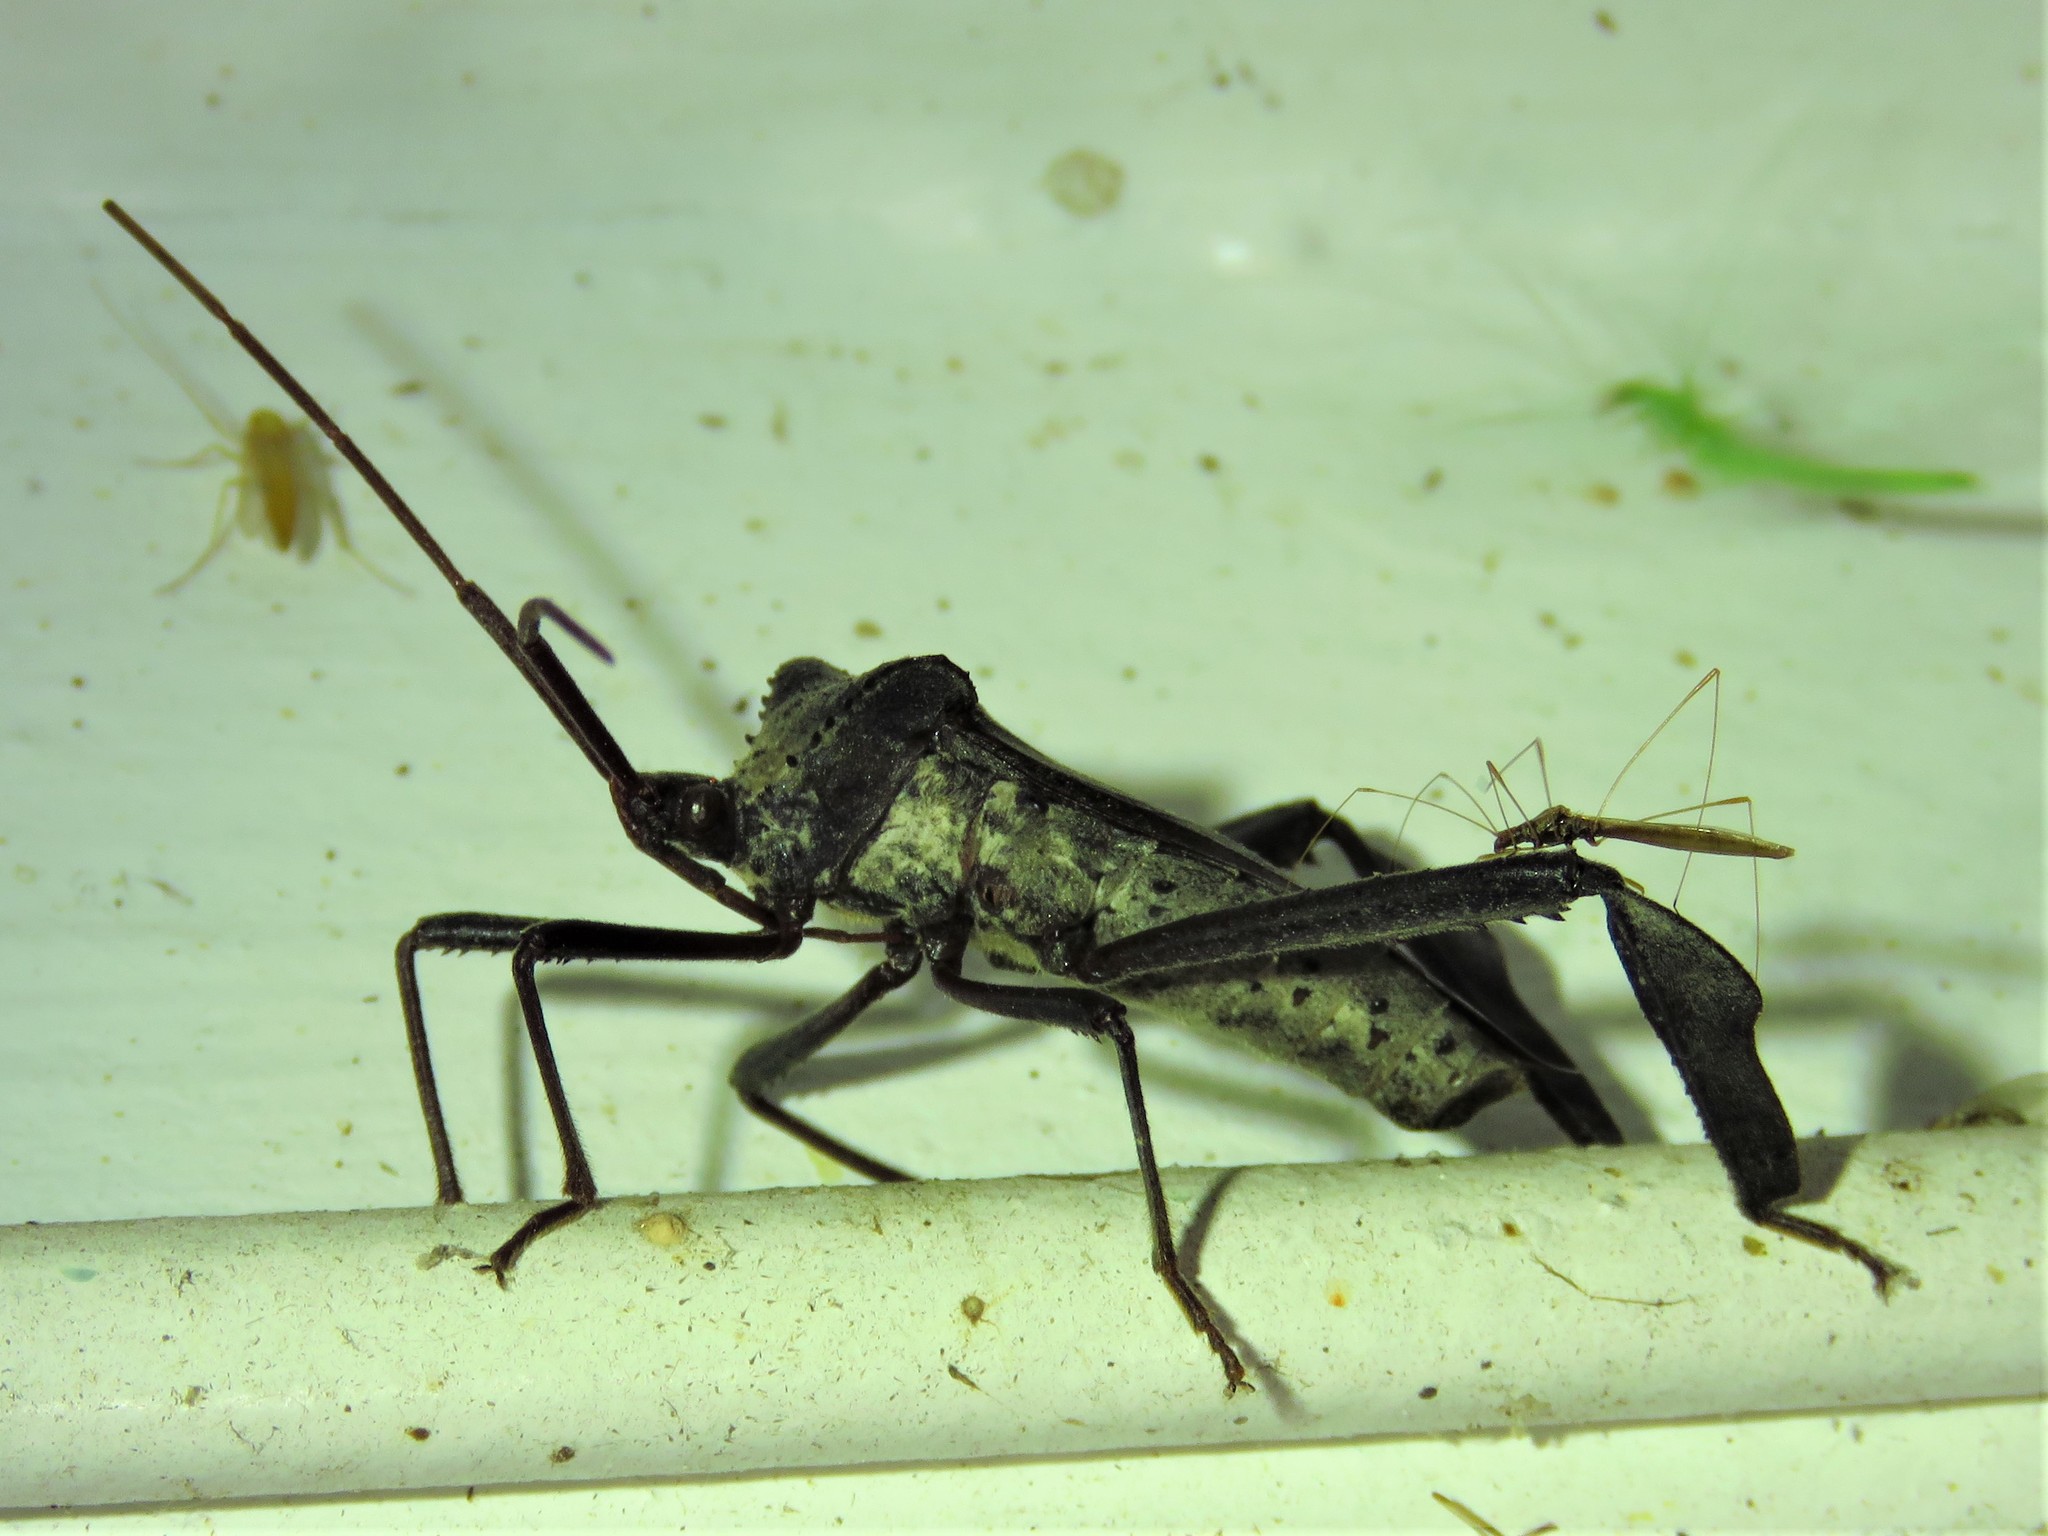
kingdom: Animalia
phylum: Arthropoda
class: Insecta
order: Hemiptera
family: Coreidae
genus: Acanthocephala
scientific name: Acanthocephala declivis
